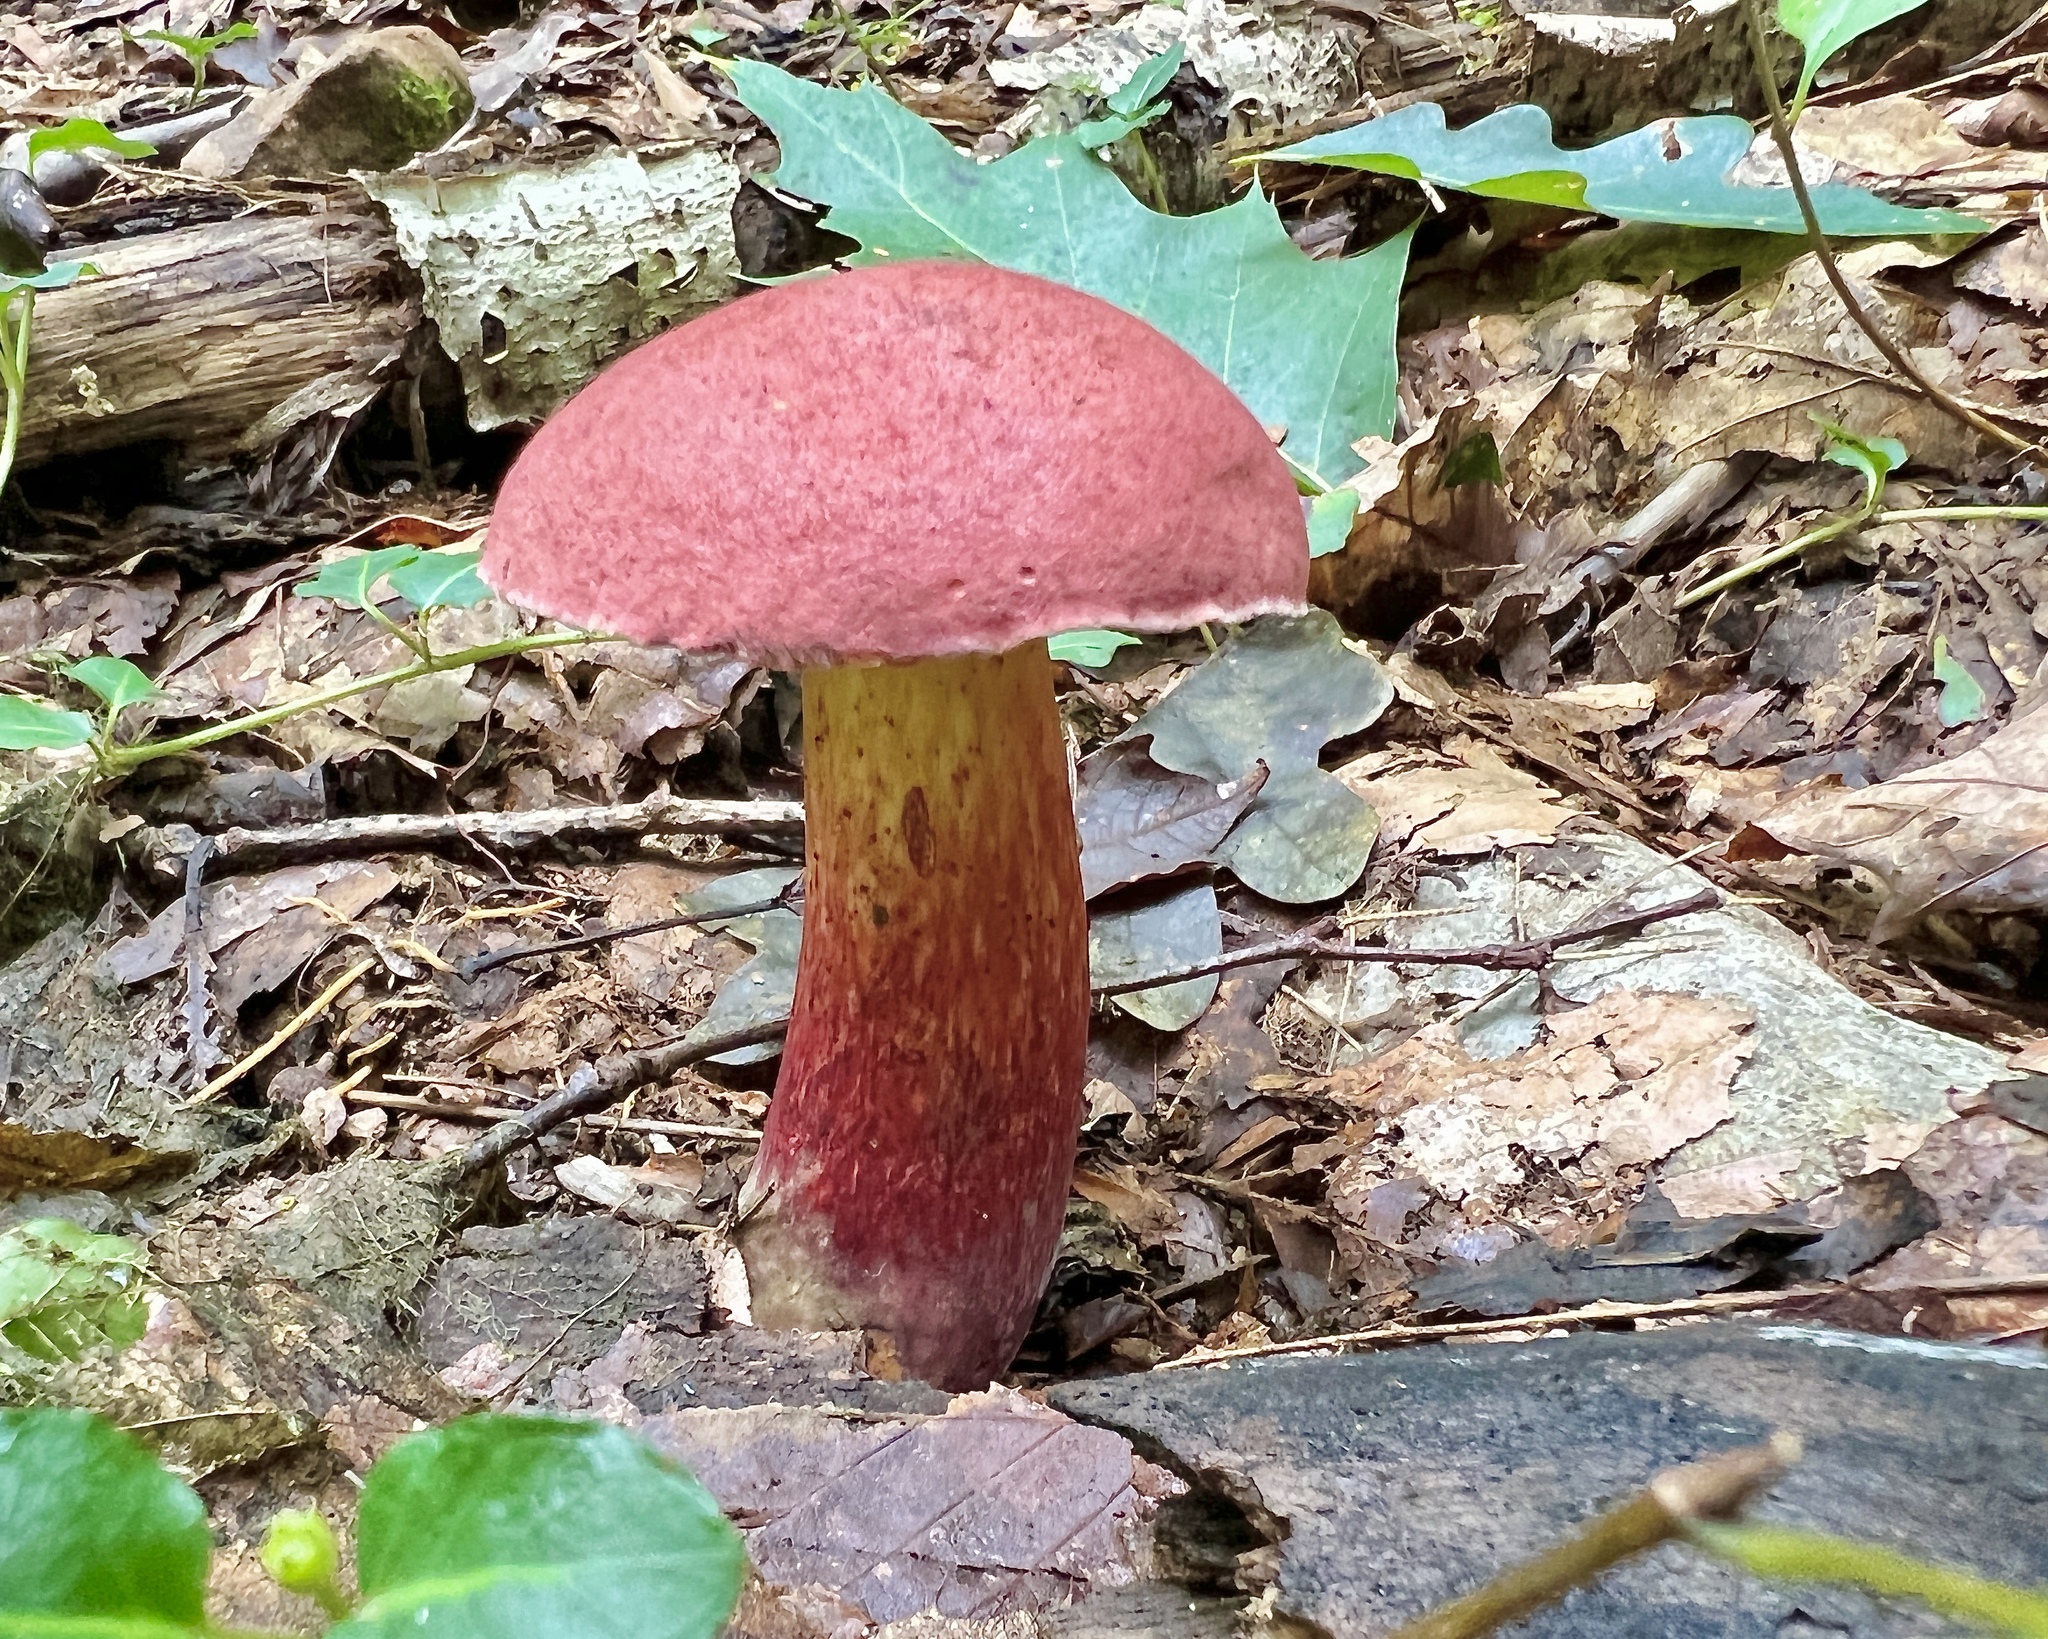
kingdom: Fungi
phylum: Basidiomycota
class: Agaricomycetes
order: Boletales
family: Boletaceae
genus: Baorangia
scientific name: Baorangia bicolor
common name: Two-colored bolete
